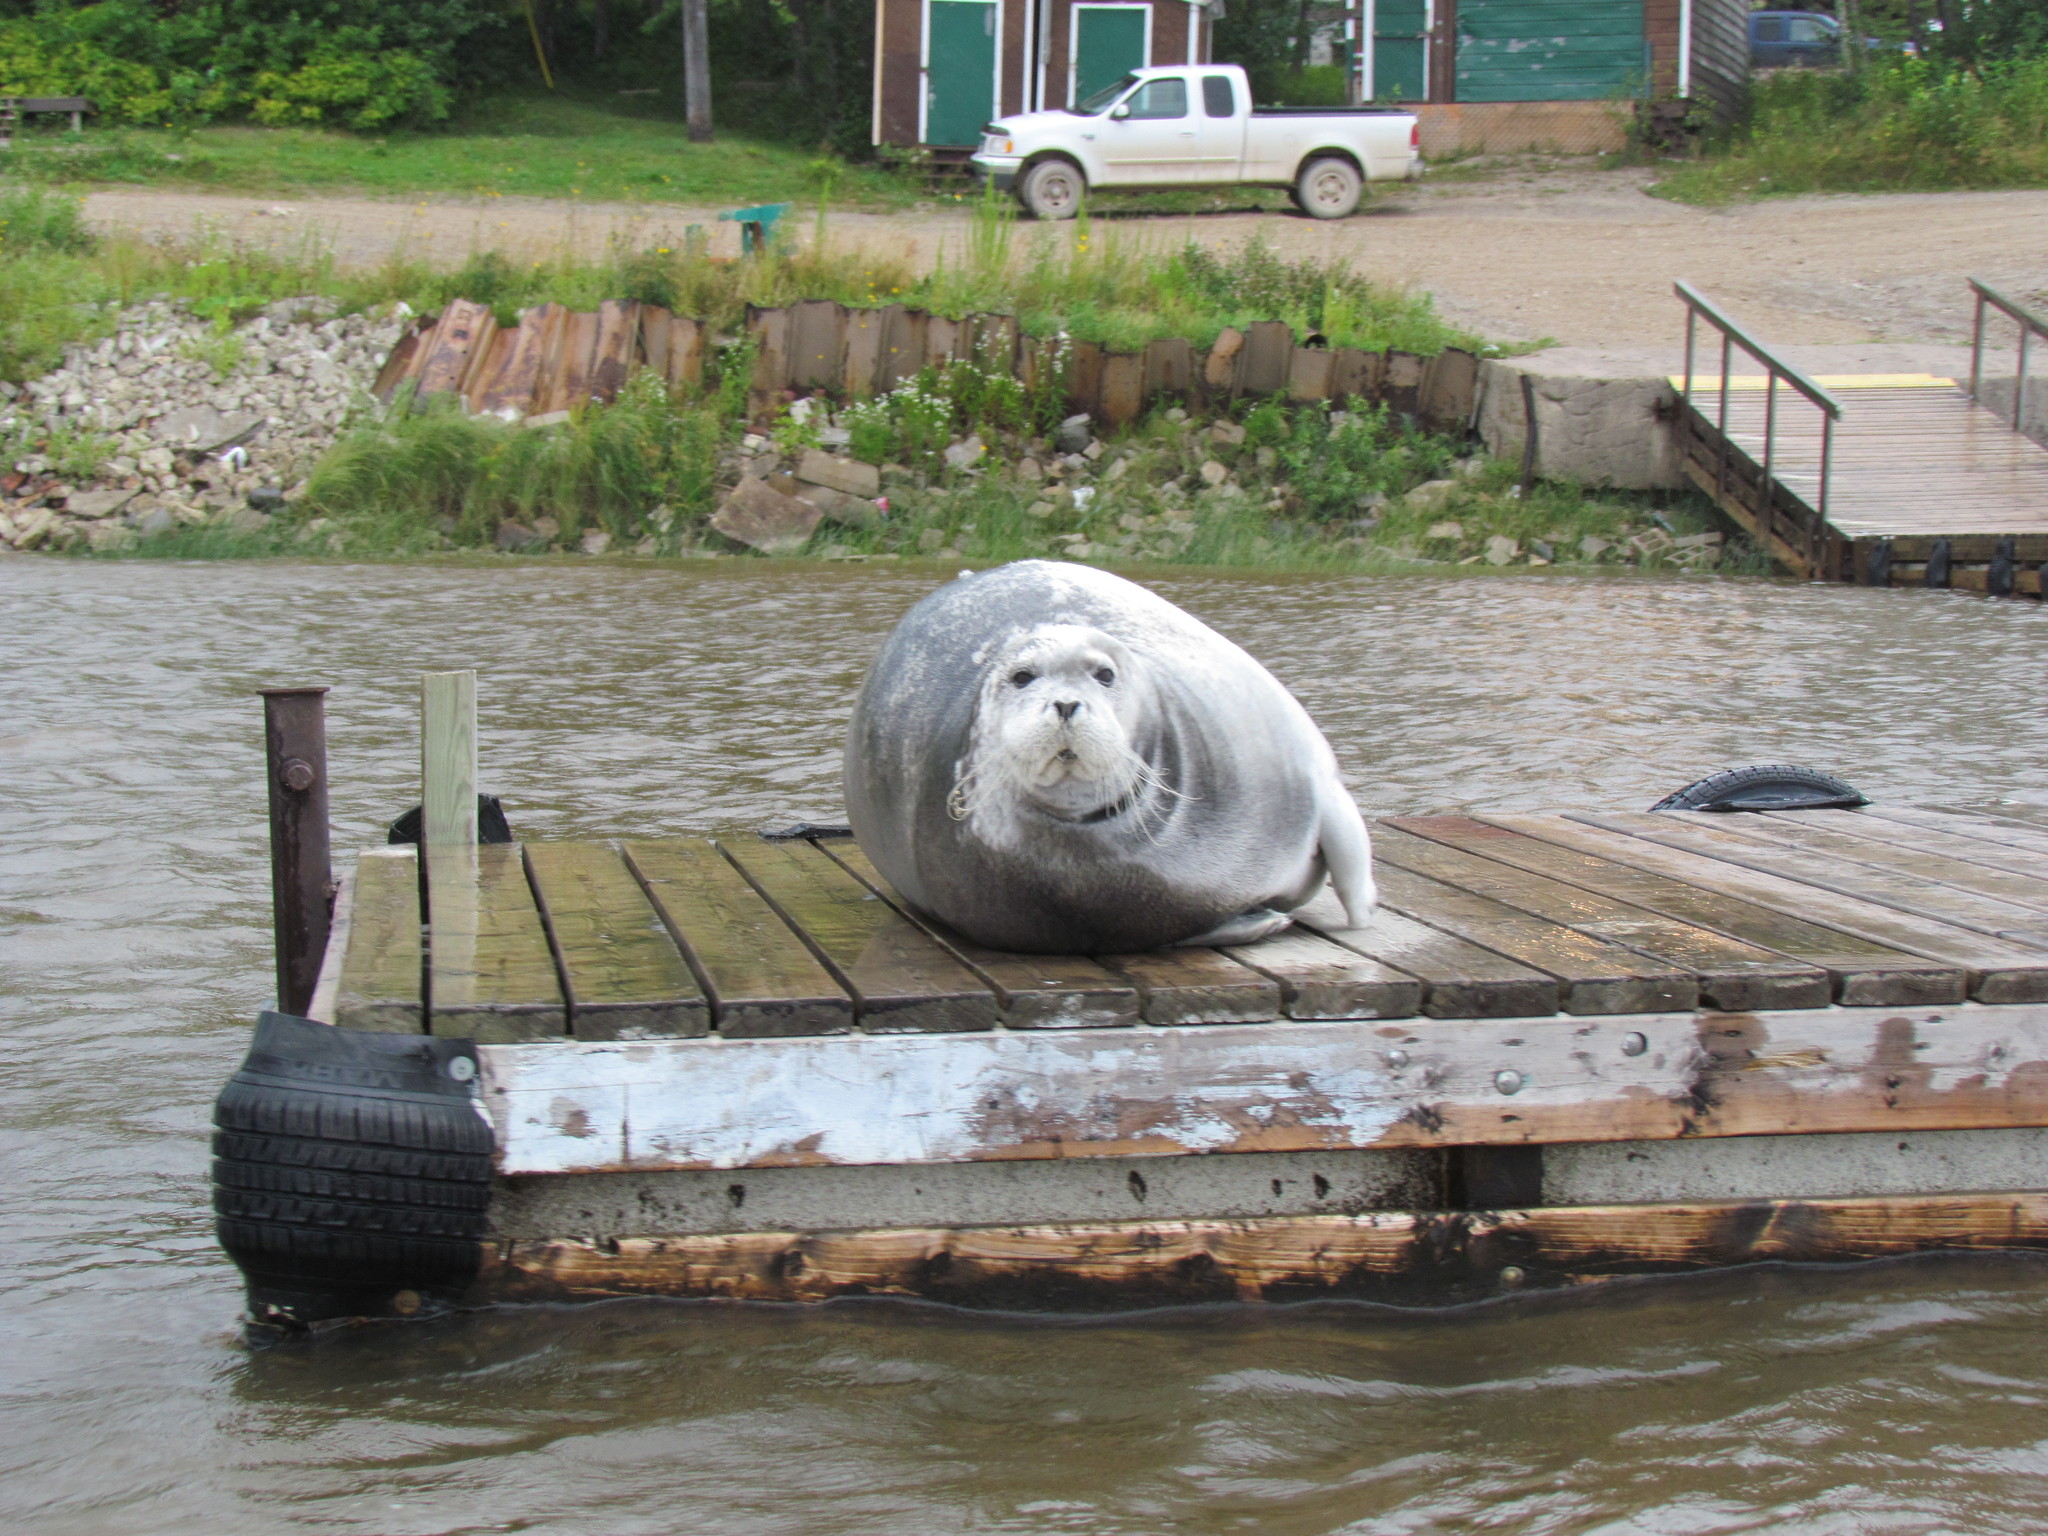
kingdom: Animalia
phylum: Chordata
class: Mammalia
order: Carnivora
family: Phocidae
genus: Erignathus
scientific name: Erignathus barbatus
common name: Bearded seal
